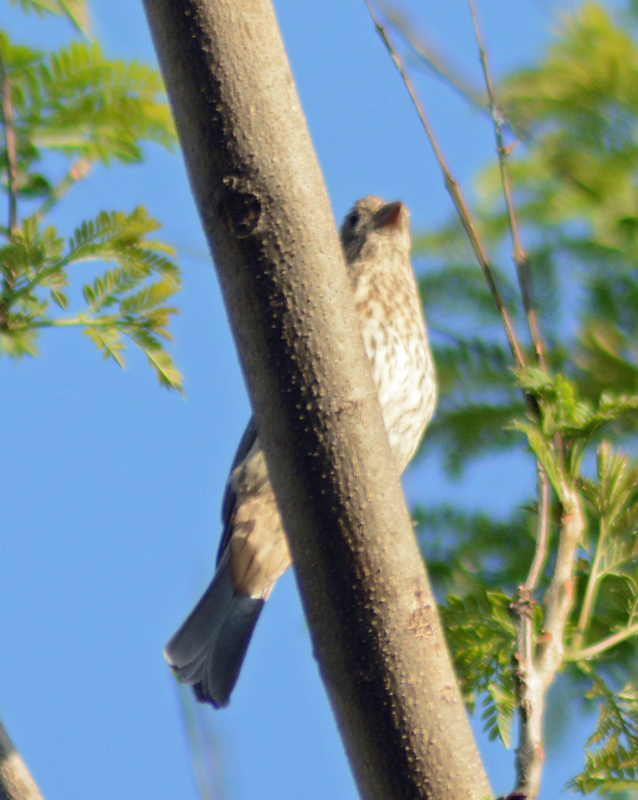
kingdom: Animalia
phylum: Chordata
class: Aves
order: Passeriformes
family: Fringillidae
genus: Haemorhous
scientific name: Haemorhous mexicanus
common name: House finch
